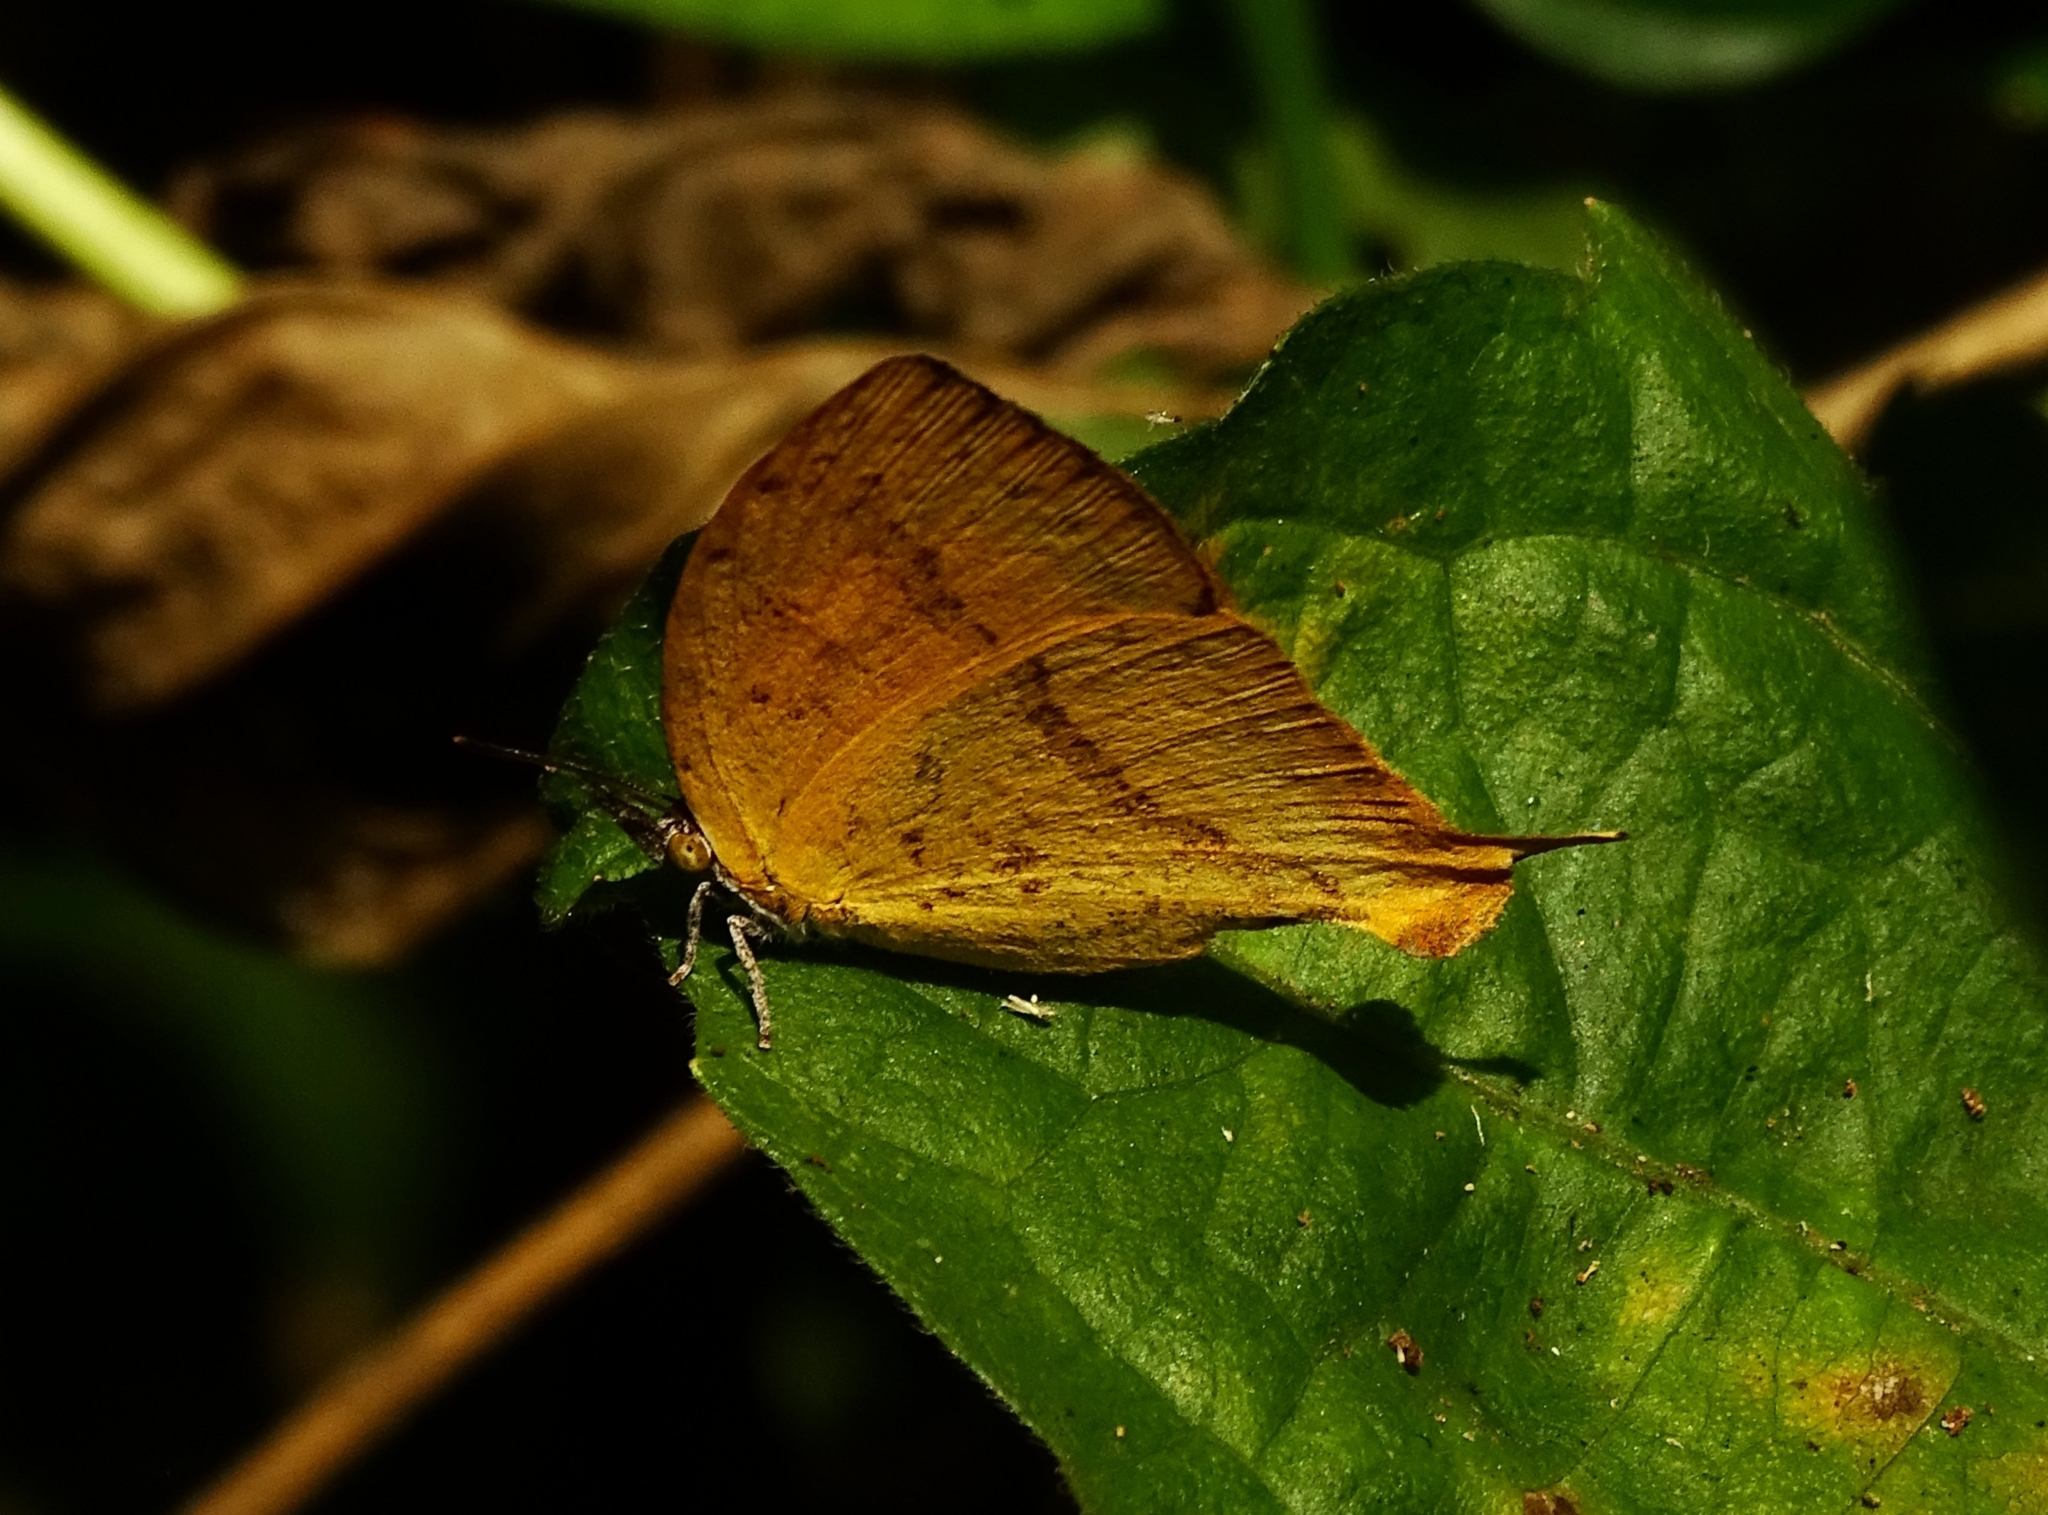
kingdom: Animalia
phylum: Arthropoda
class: Insecta
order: Lepidoptera
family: Lycaenidae
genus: Loxura
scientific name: Loxura atymnus
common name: Common yamfly
